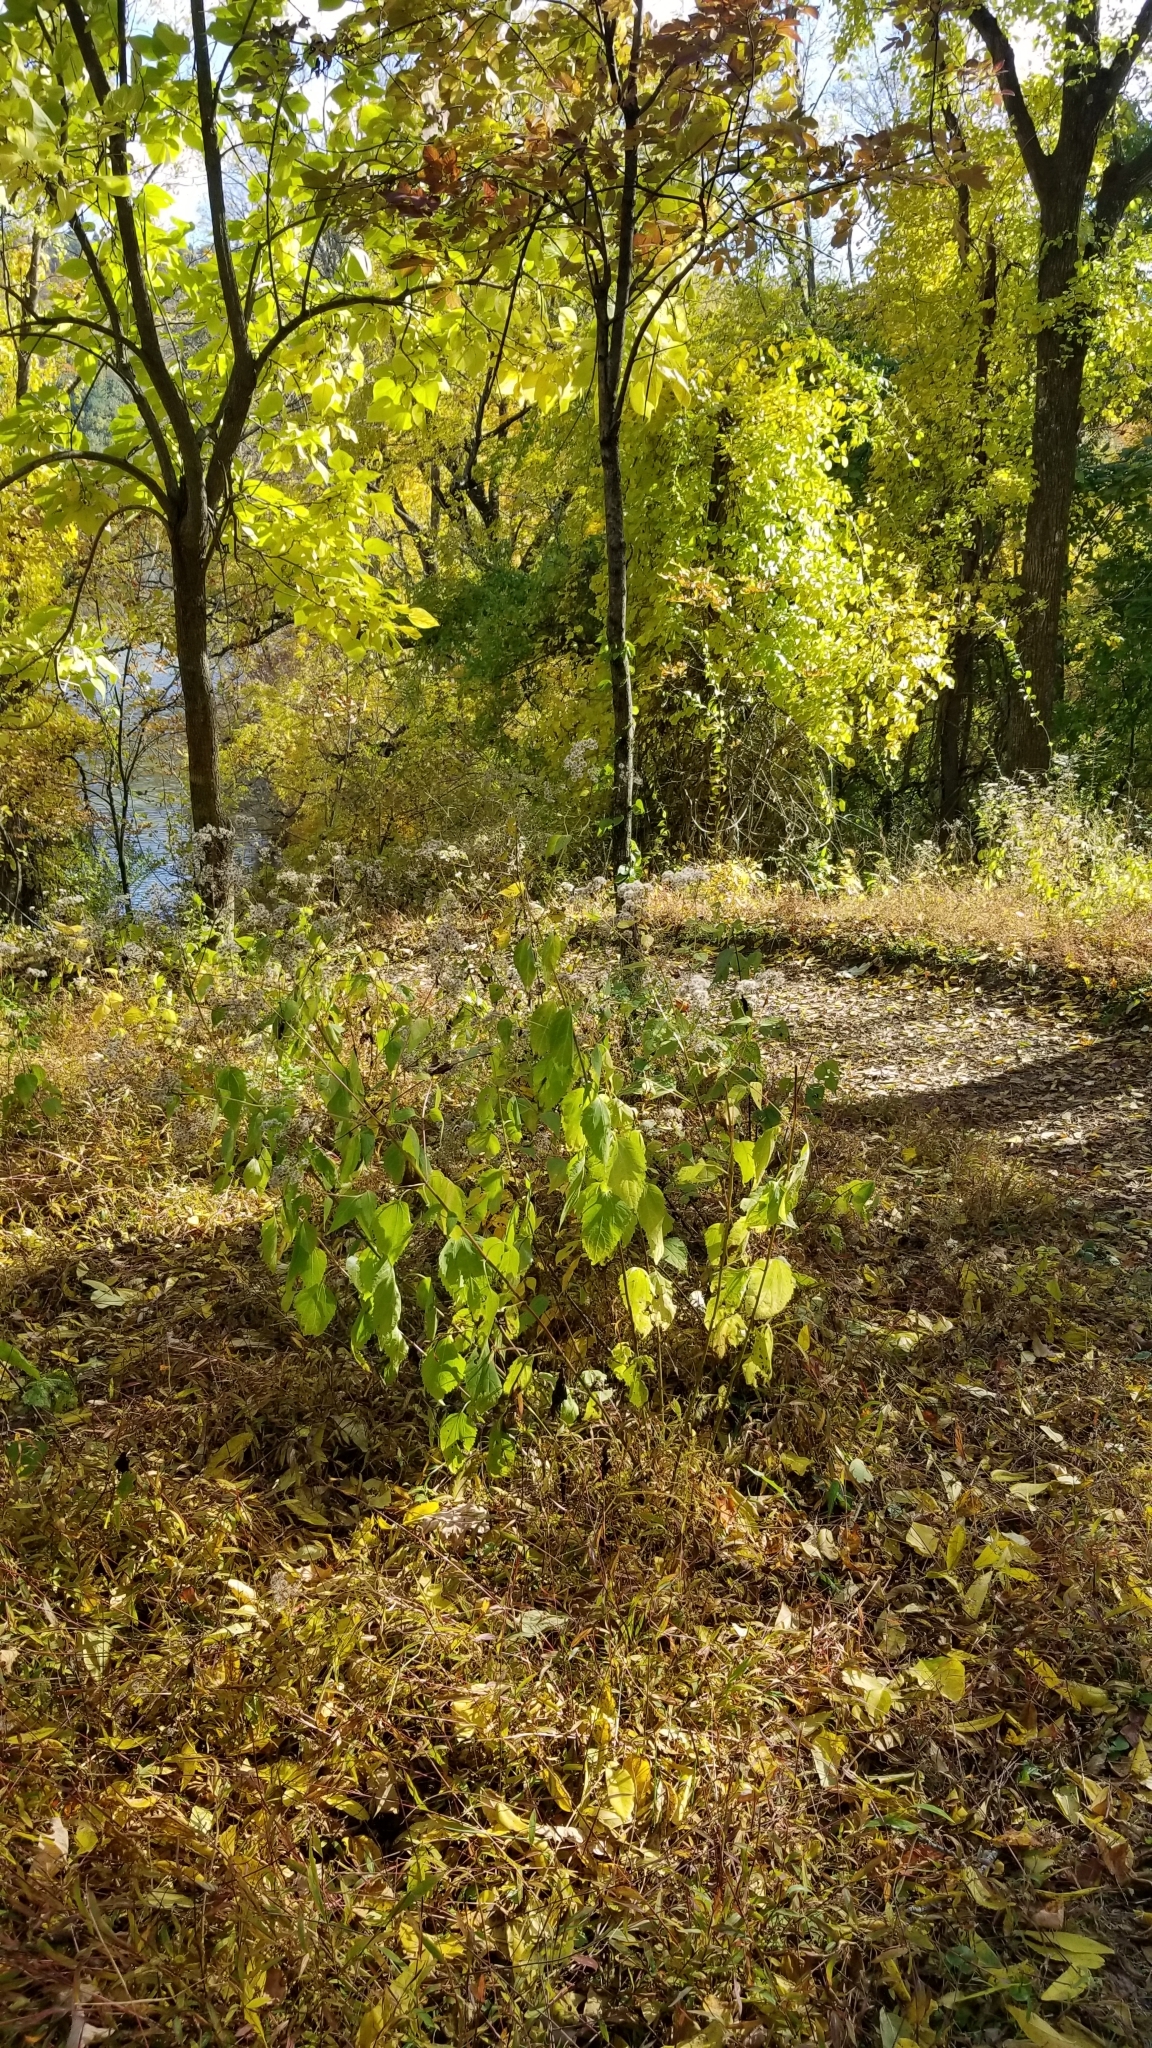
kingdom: Plantae
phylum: Tracheophyta
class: Magnoliopsida
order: Asterales
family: Asteraceae
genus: Ageratina
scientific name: Ageratina altissima
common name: White snakeroot
